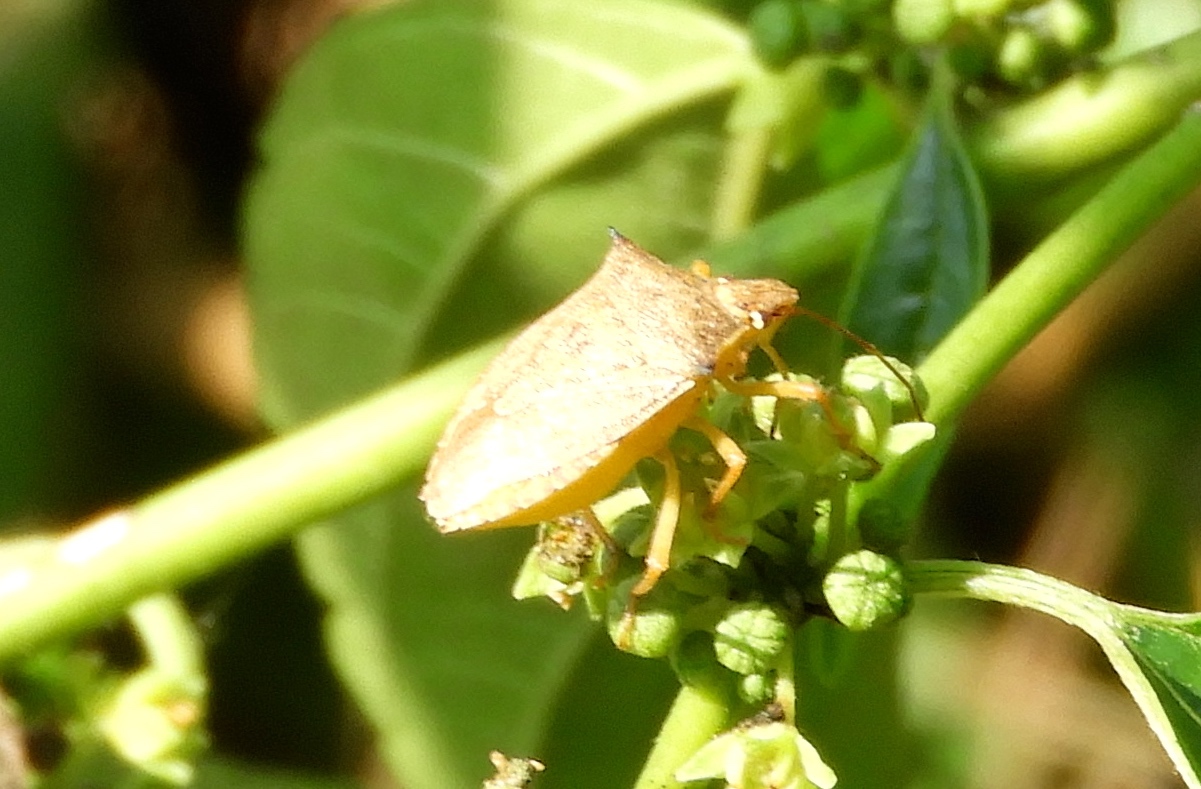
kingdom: Animalia
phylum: Arthropoda
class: Insecta
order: Hemiptera
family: Pentatomidae
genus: Euschistus
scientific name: Euschistus
